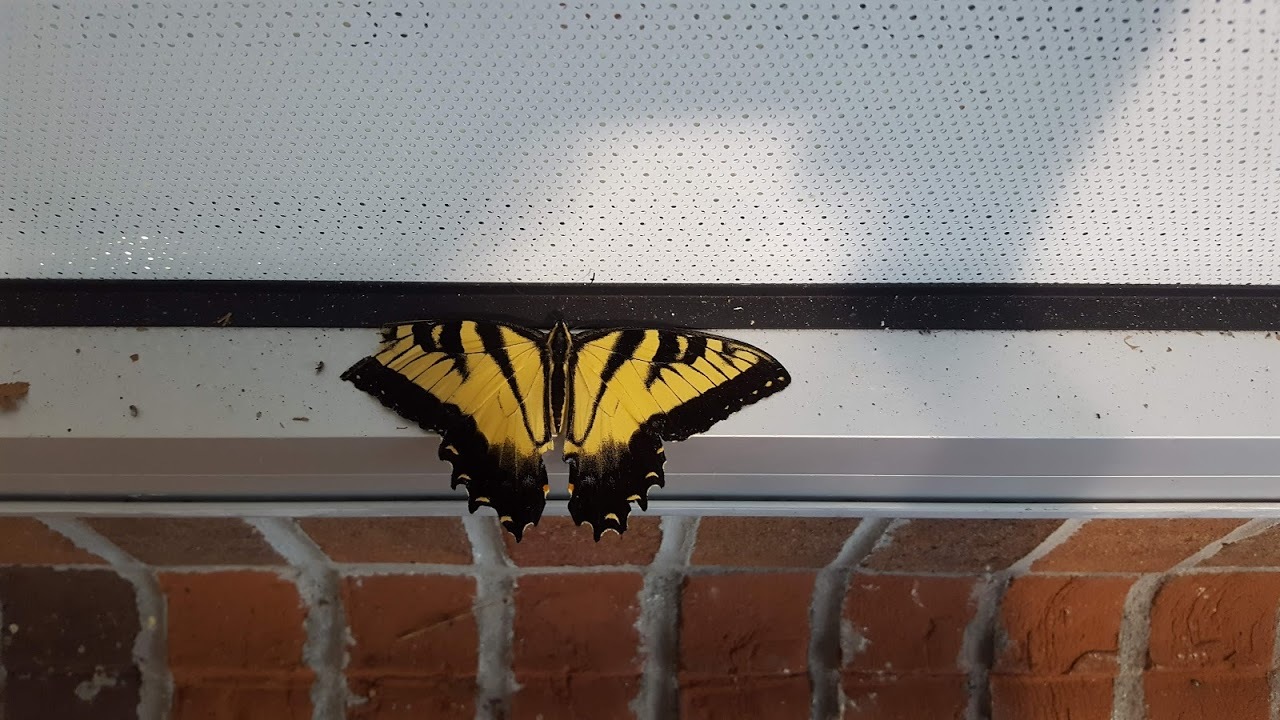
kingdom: Animalia
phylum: Arthropoda
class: Insecta
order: Lepidoptera
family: Papilionidae
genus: Papilio
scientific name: Papilio glaucus
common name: Tiger swallowtail
